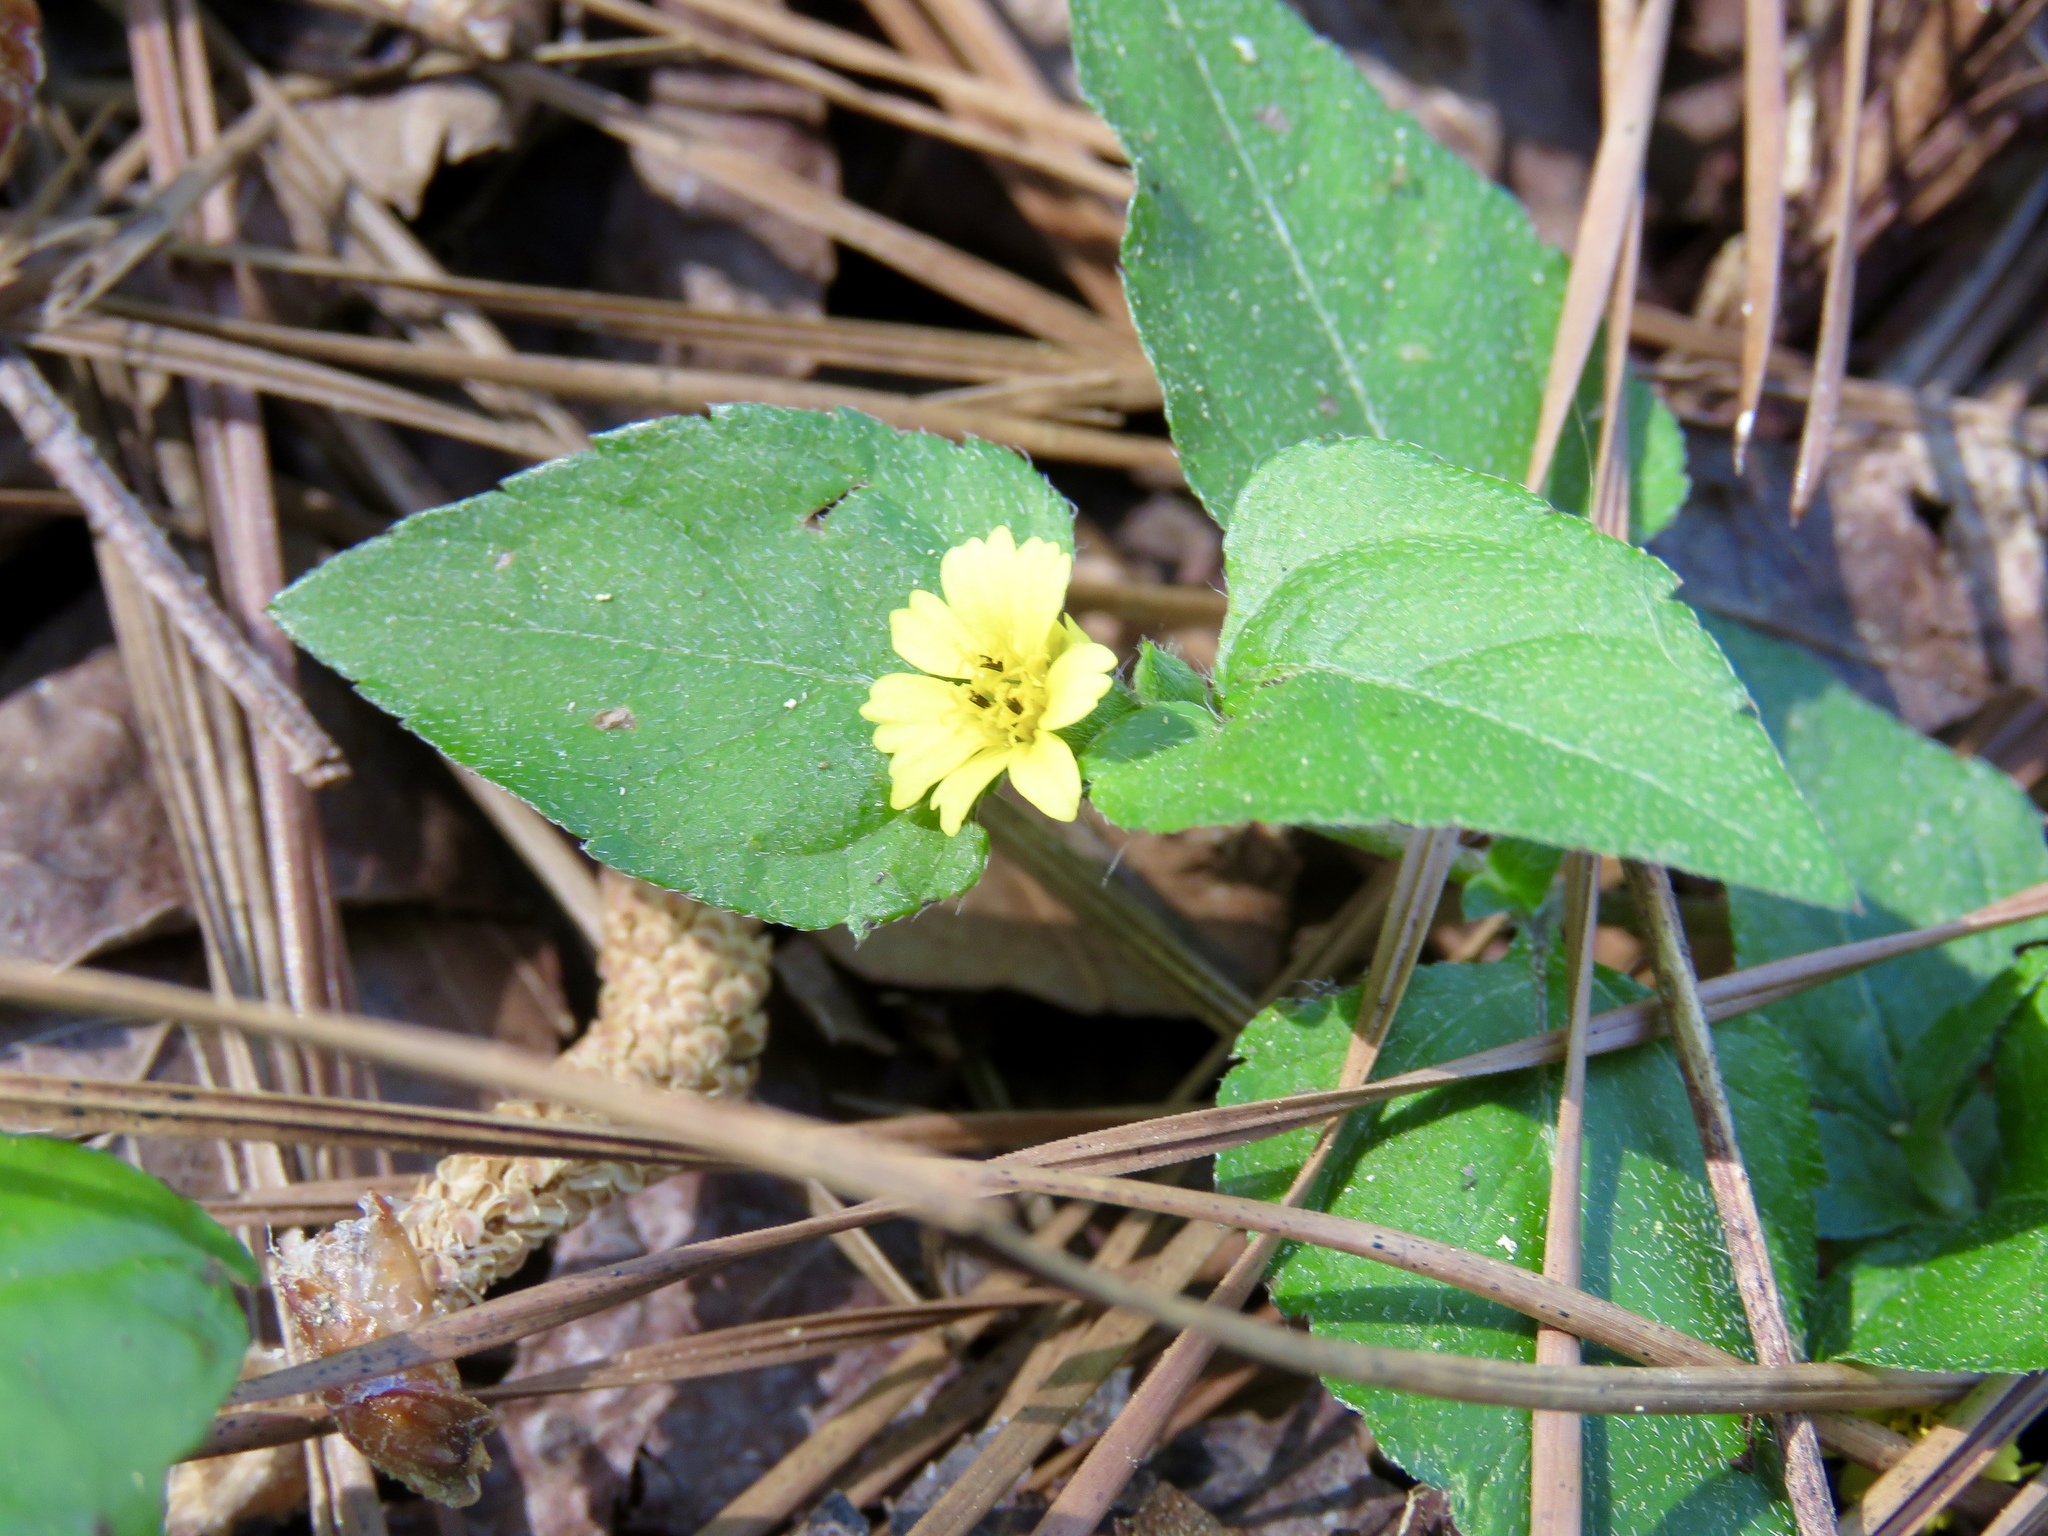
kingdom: Plantae
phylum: Tracheophyta
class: Magnoliopsida
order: Asterales
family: Asteraceae
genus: Calyptocarpus
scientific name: Calyptocarpus vialis
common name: Straggler daisy
